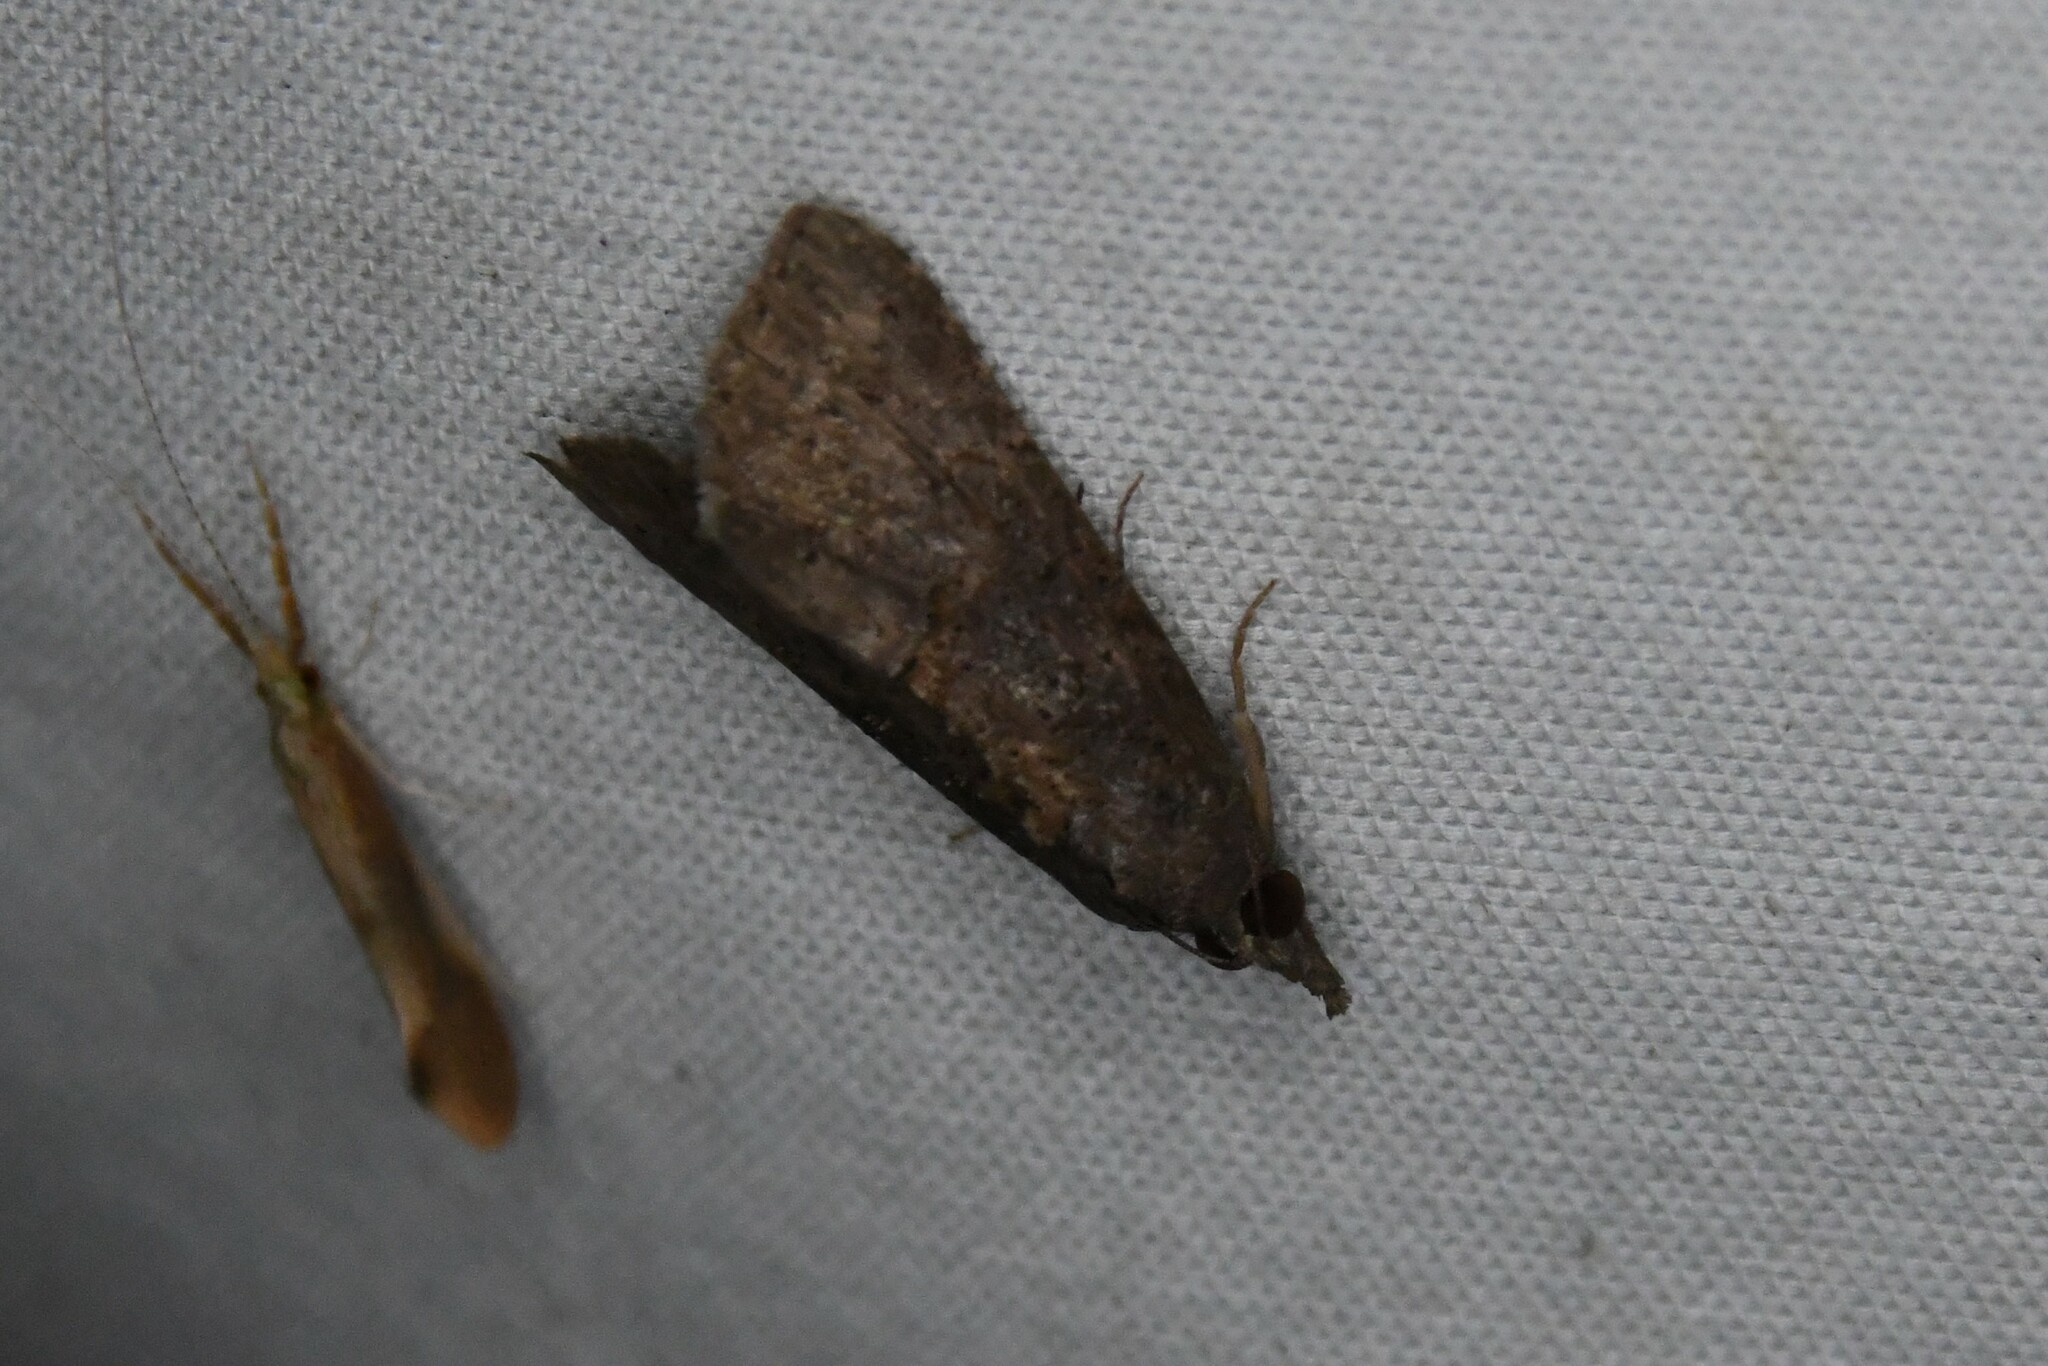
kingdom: Animalia
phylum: Arthropoda
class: Insecta
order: Lepidoptera
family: Erebidae
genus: Hypena
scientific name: Hypena scabra
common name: Green cloverworm
